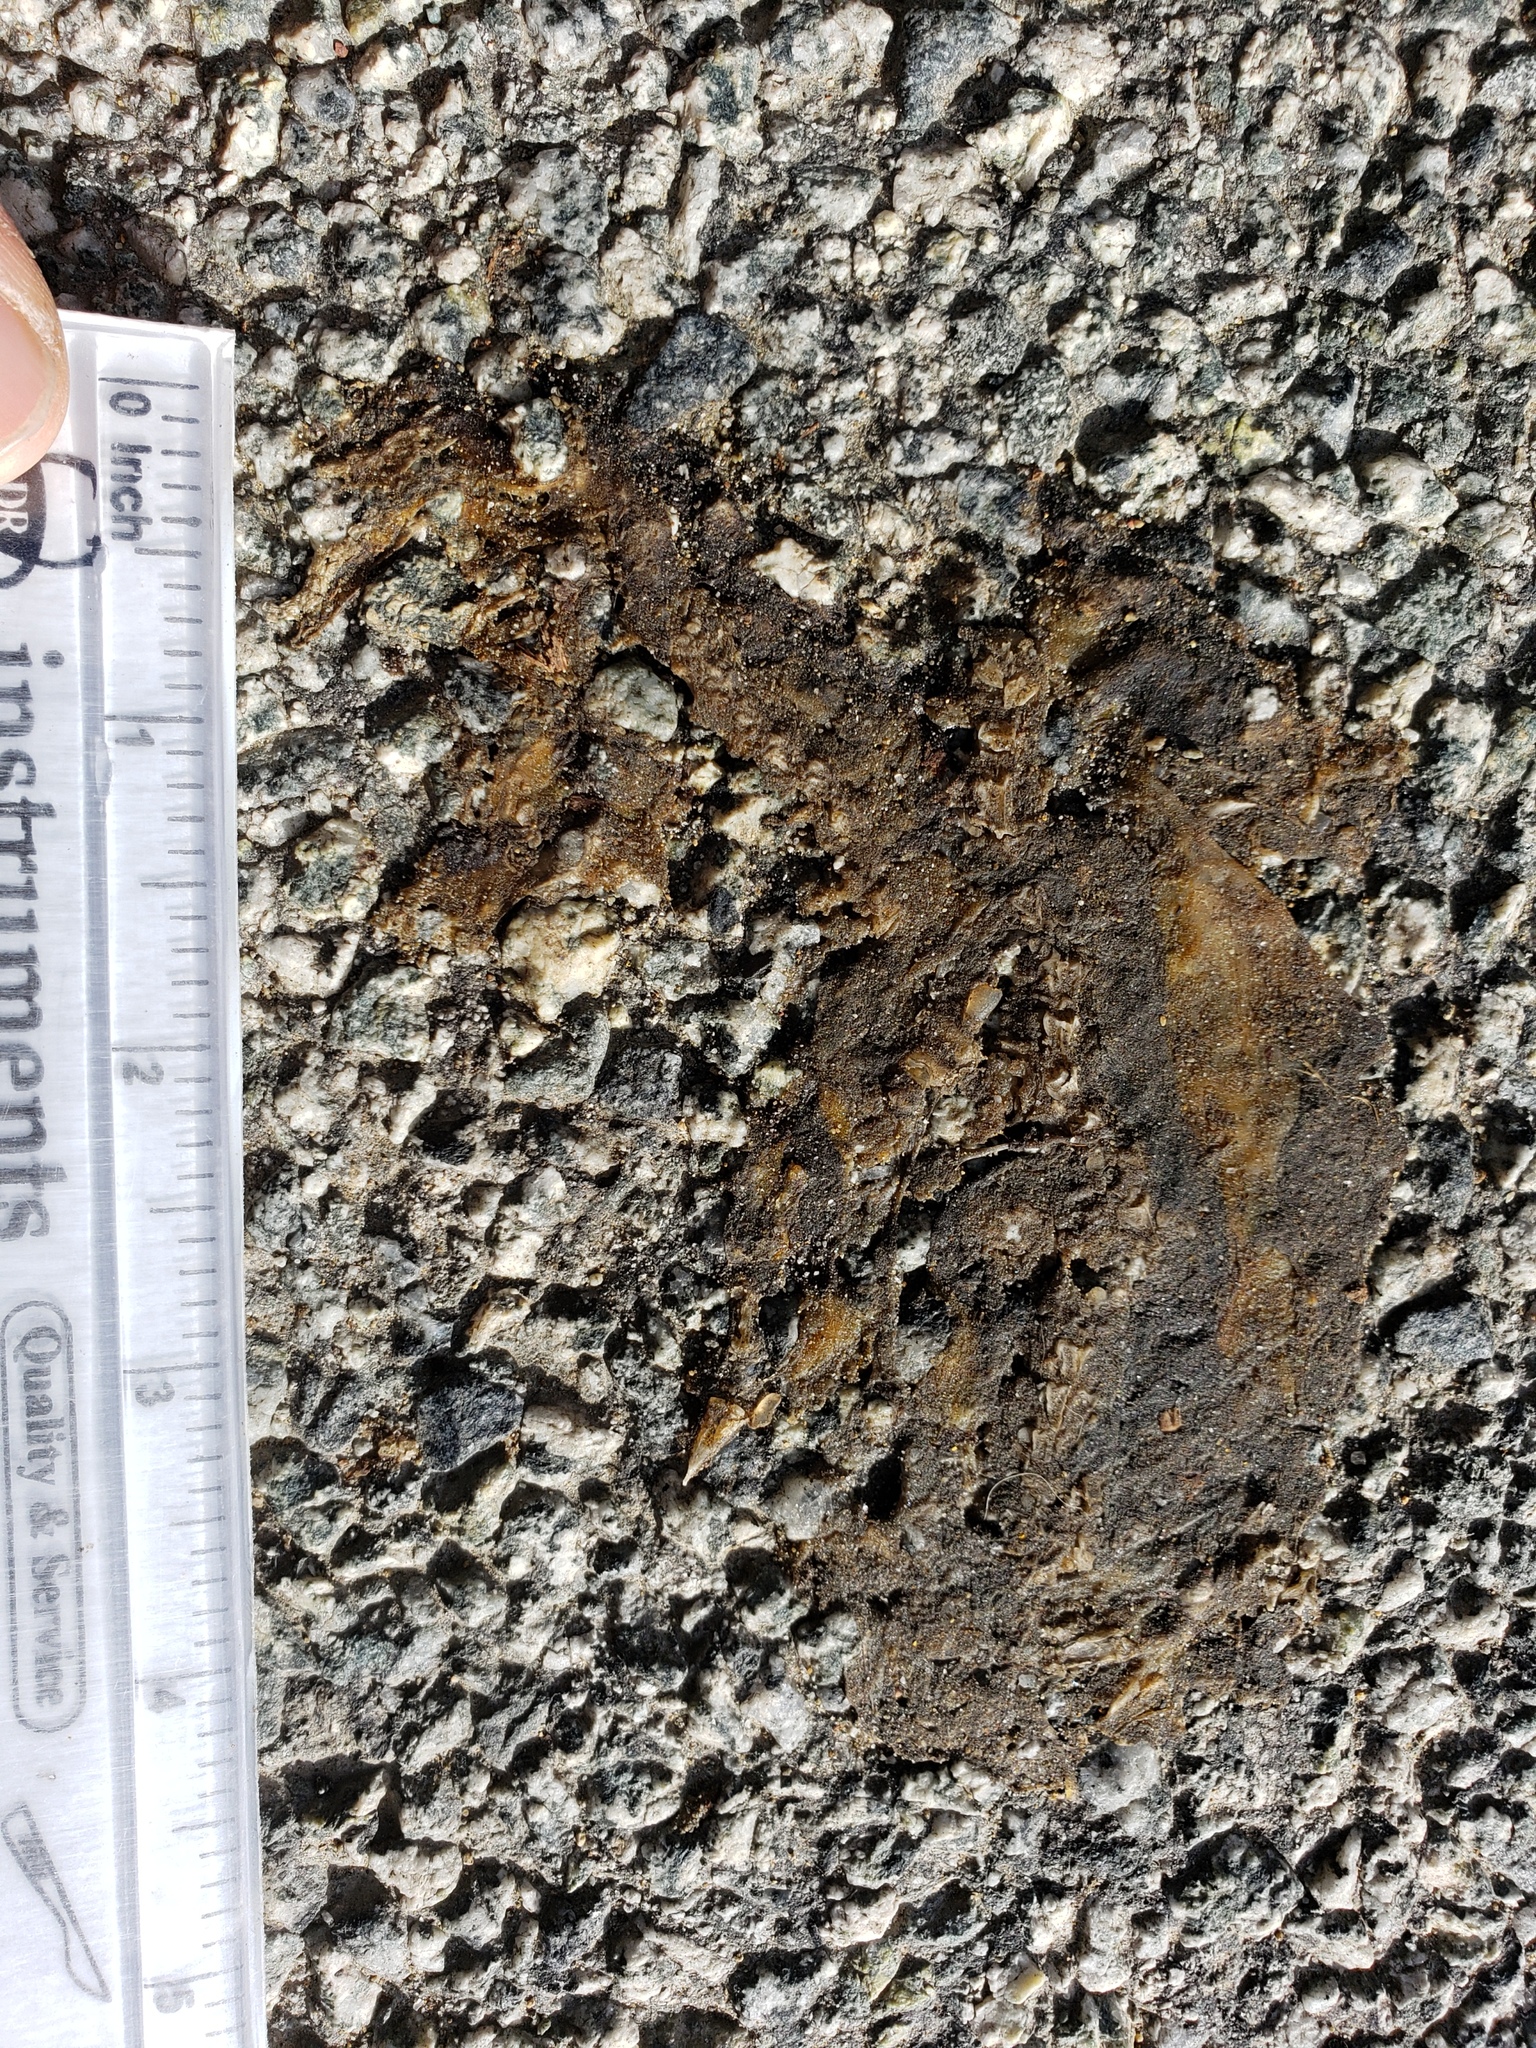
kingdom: Animalia
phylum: Chordata
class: Amphibia
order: Caudata
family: Salamandridae
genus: Taricha
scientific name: Taricha
